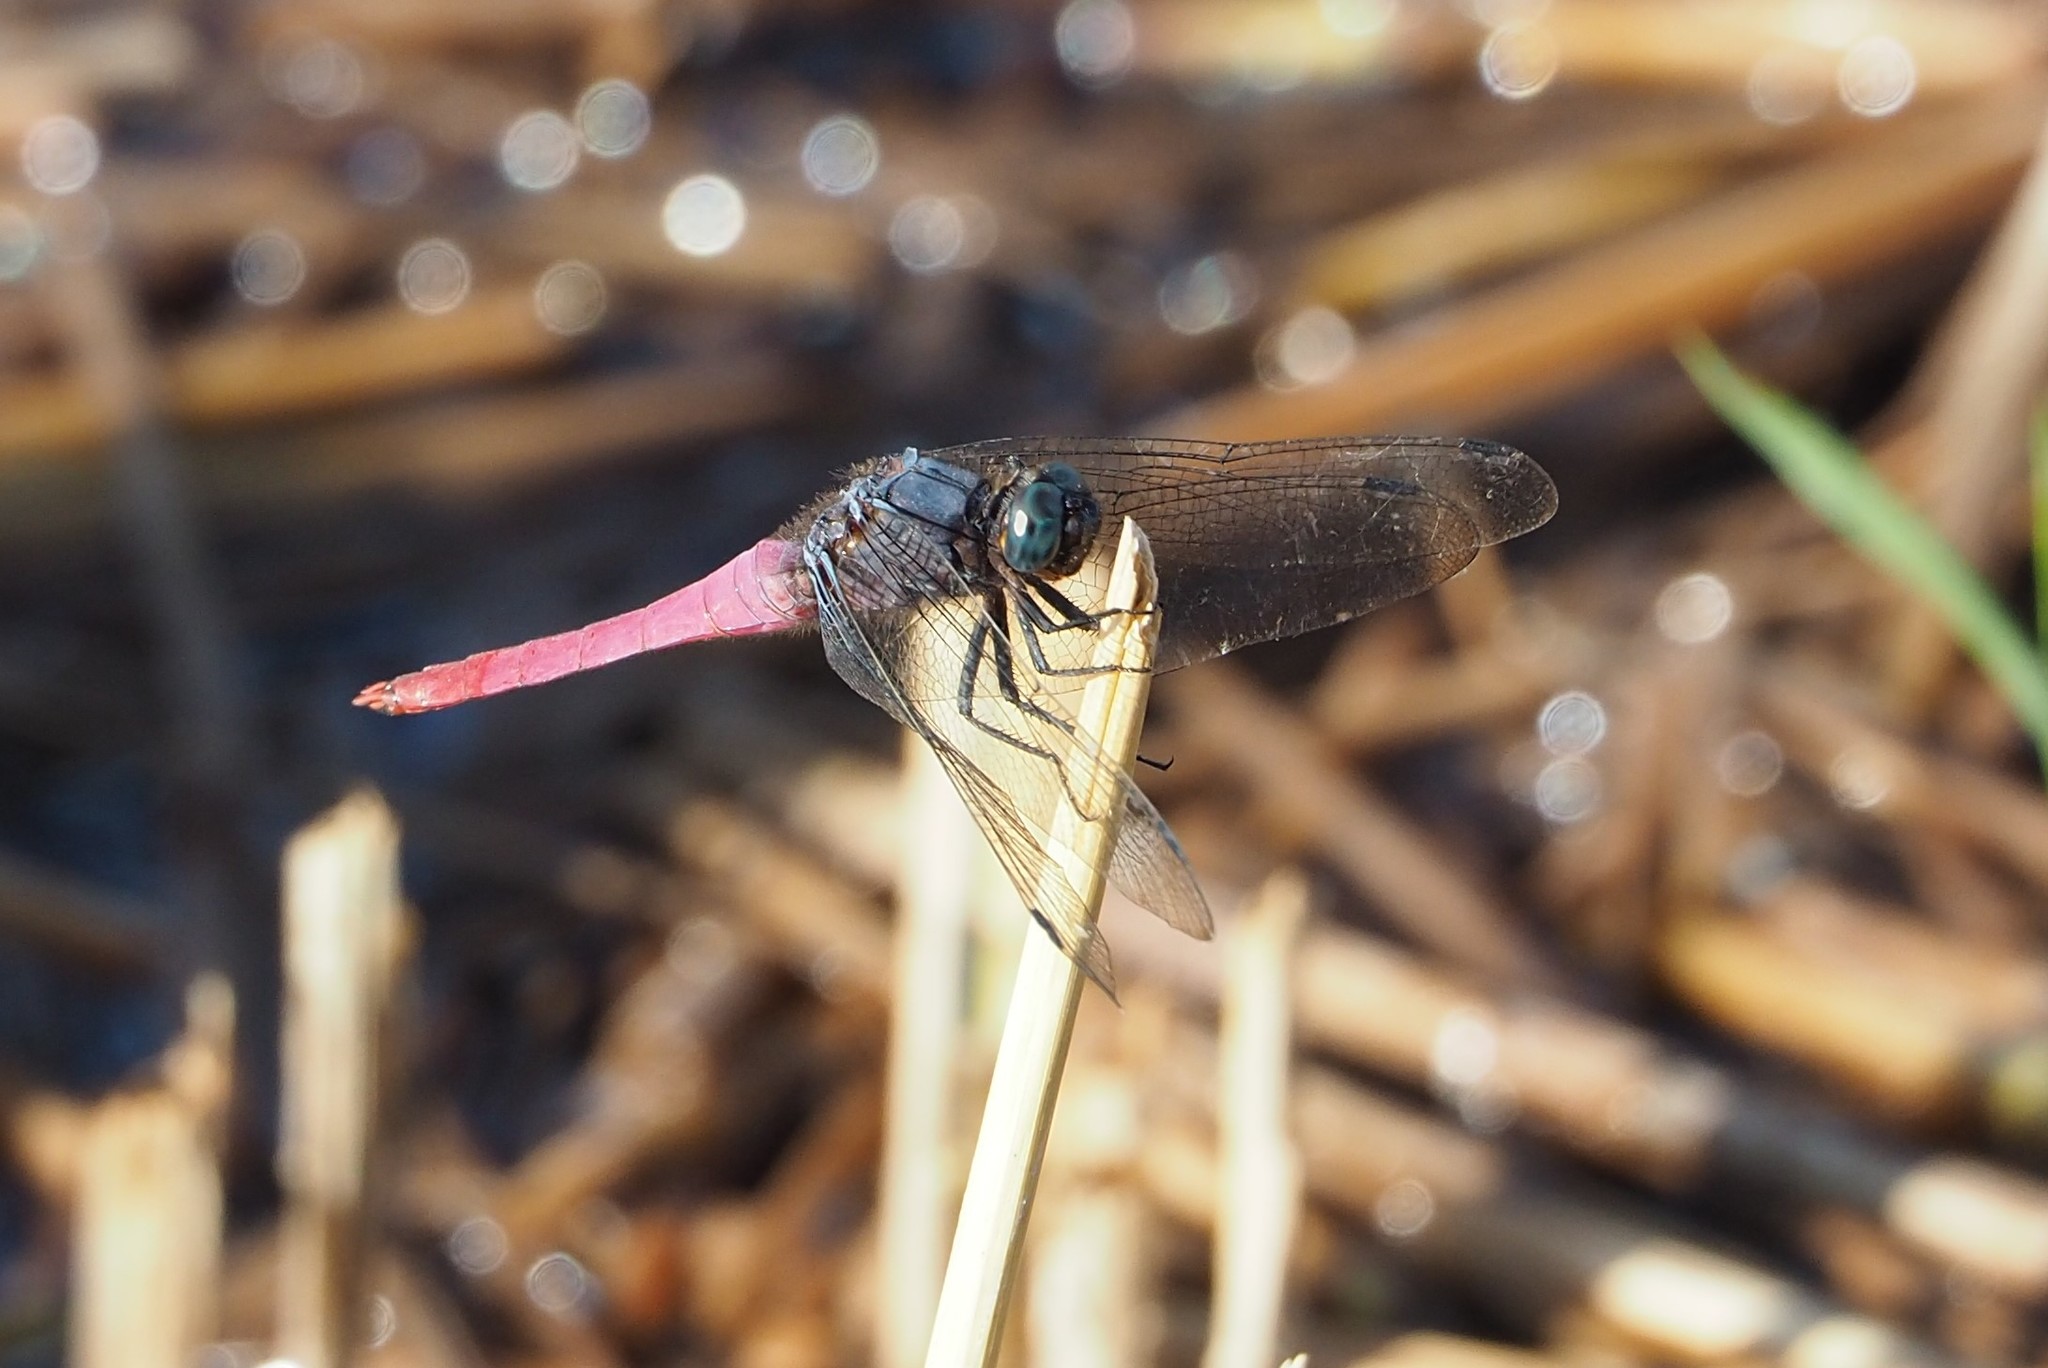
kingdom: Animalia
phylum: Arthropoda
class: Insecta
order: Odonata
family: Libellulidae
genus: Orthetrum
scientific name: Orthetrum pruinosum
